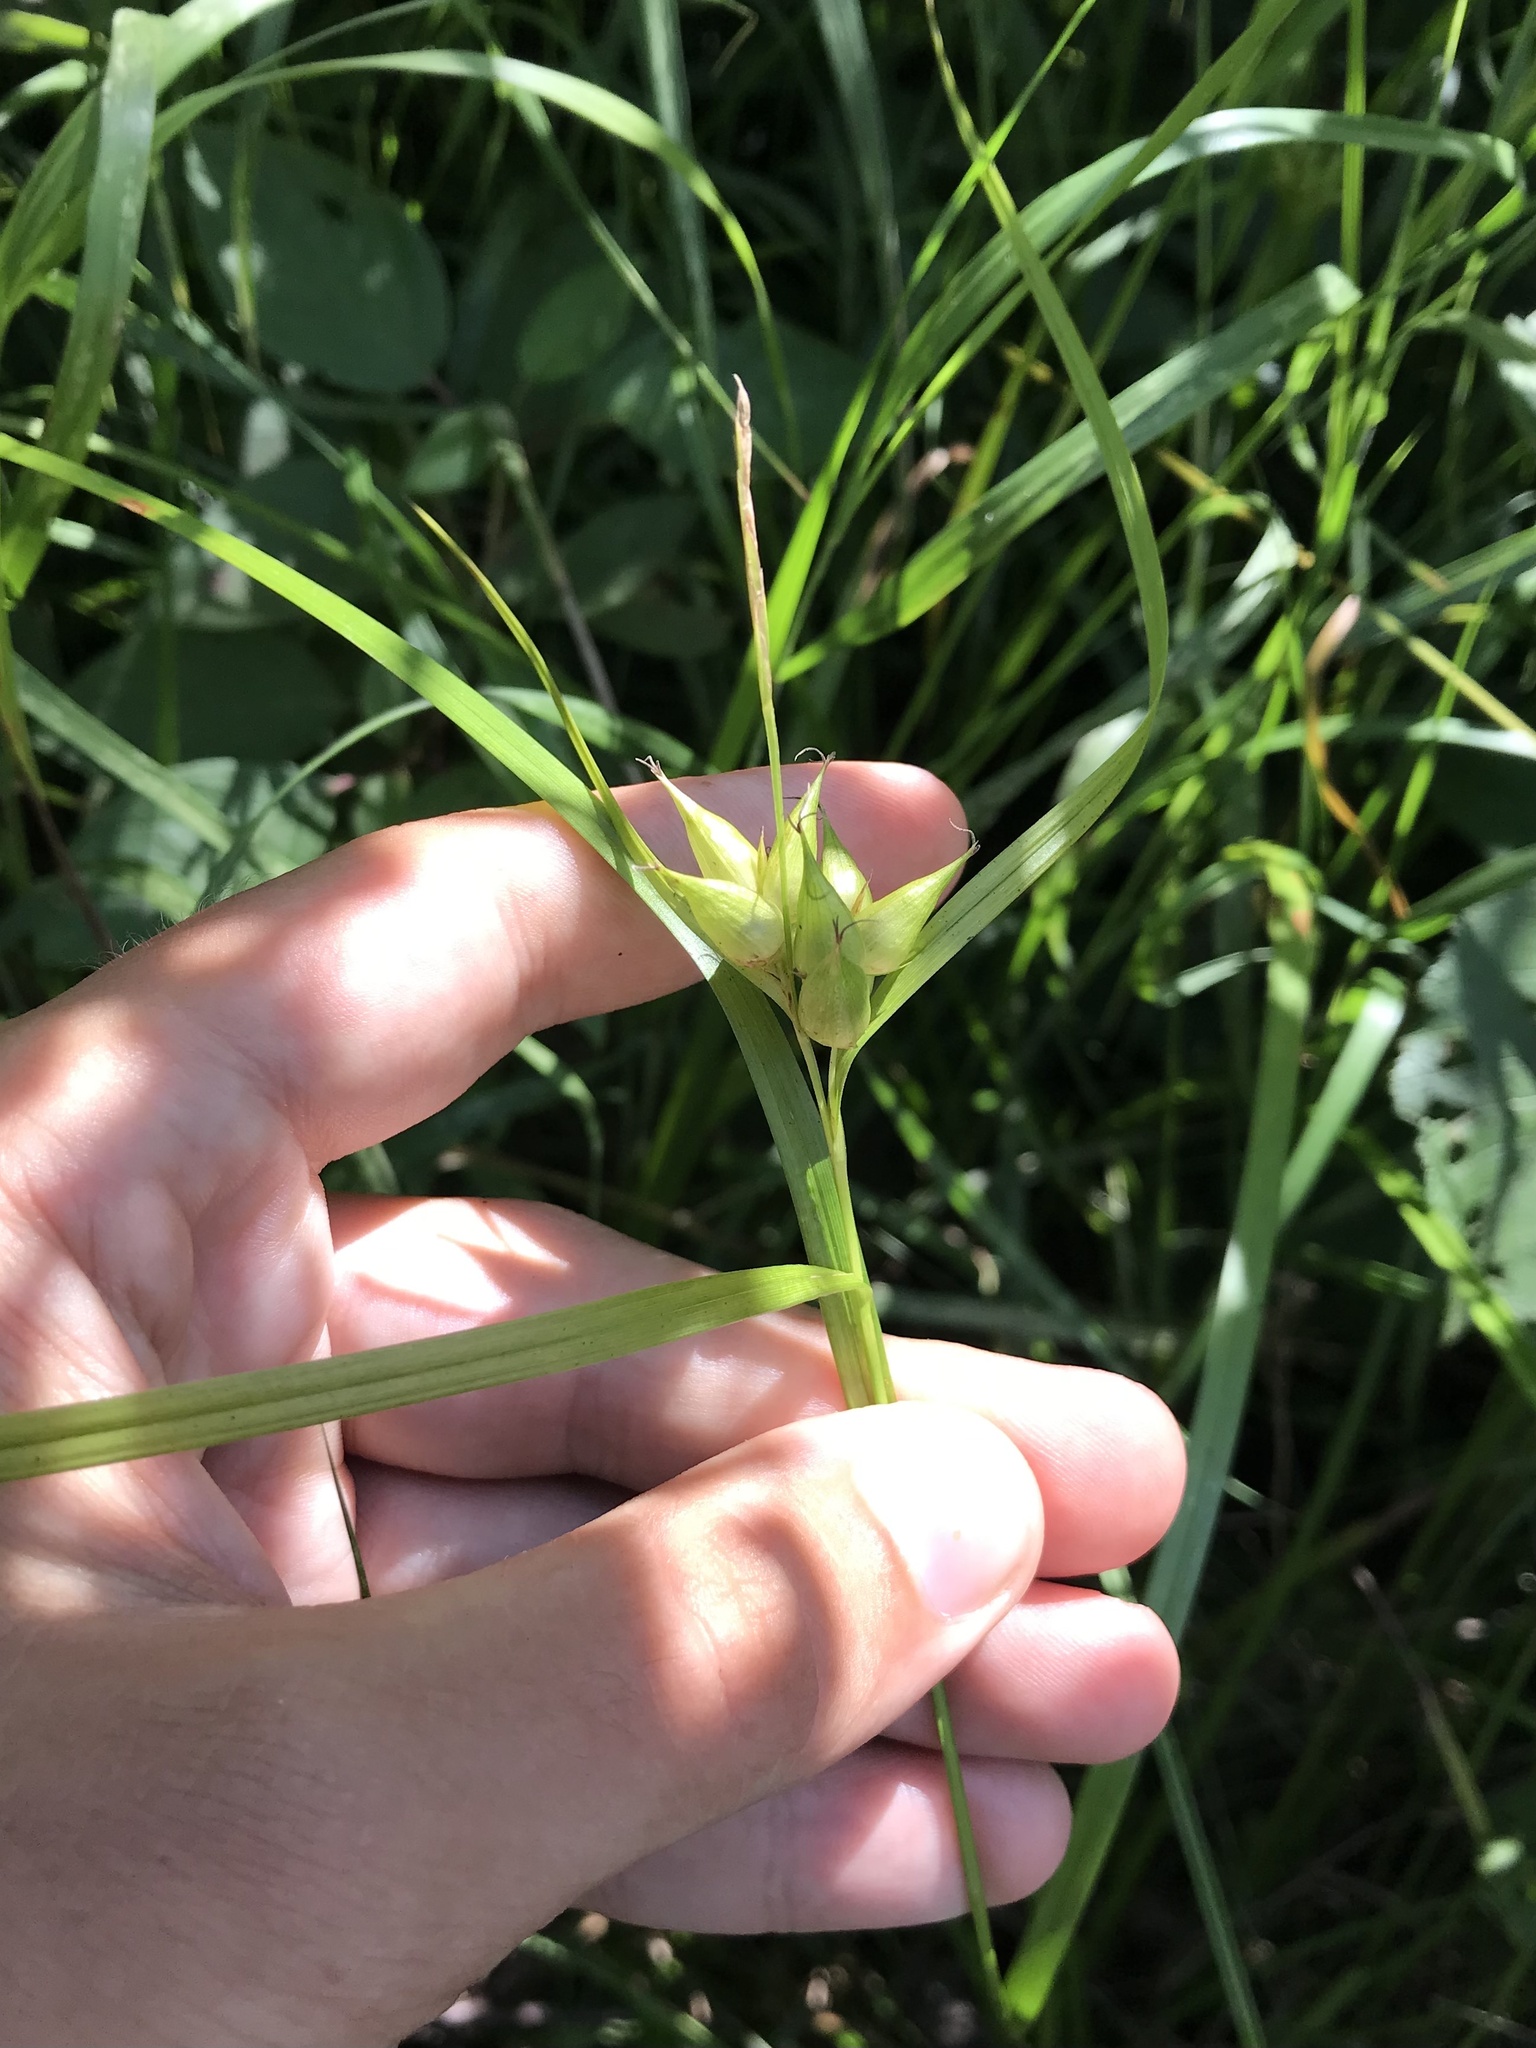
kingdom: Plantae
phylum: Tracheophyta
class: Liliopsida
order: Poales
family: Cyperaceae
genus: Carex
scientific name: Carex intumescens
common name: Greater bladder sedge
